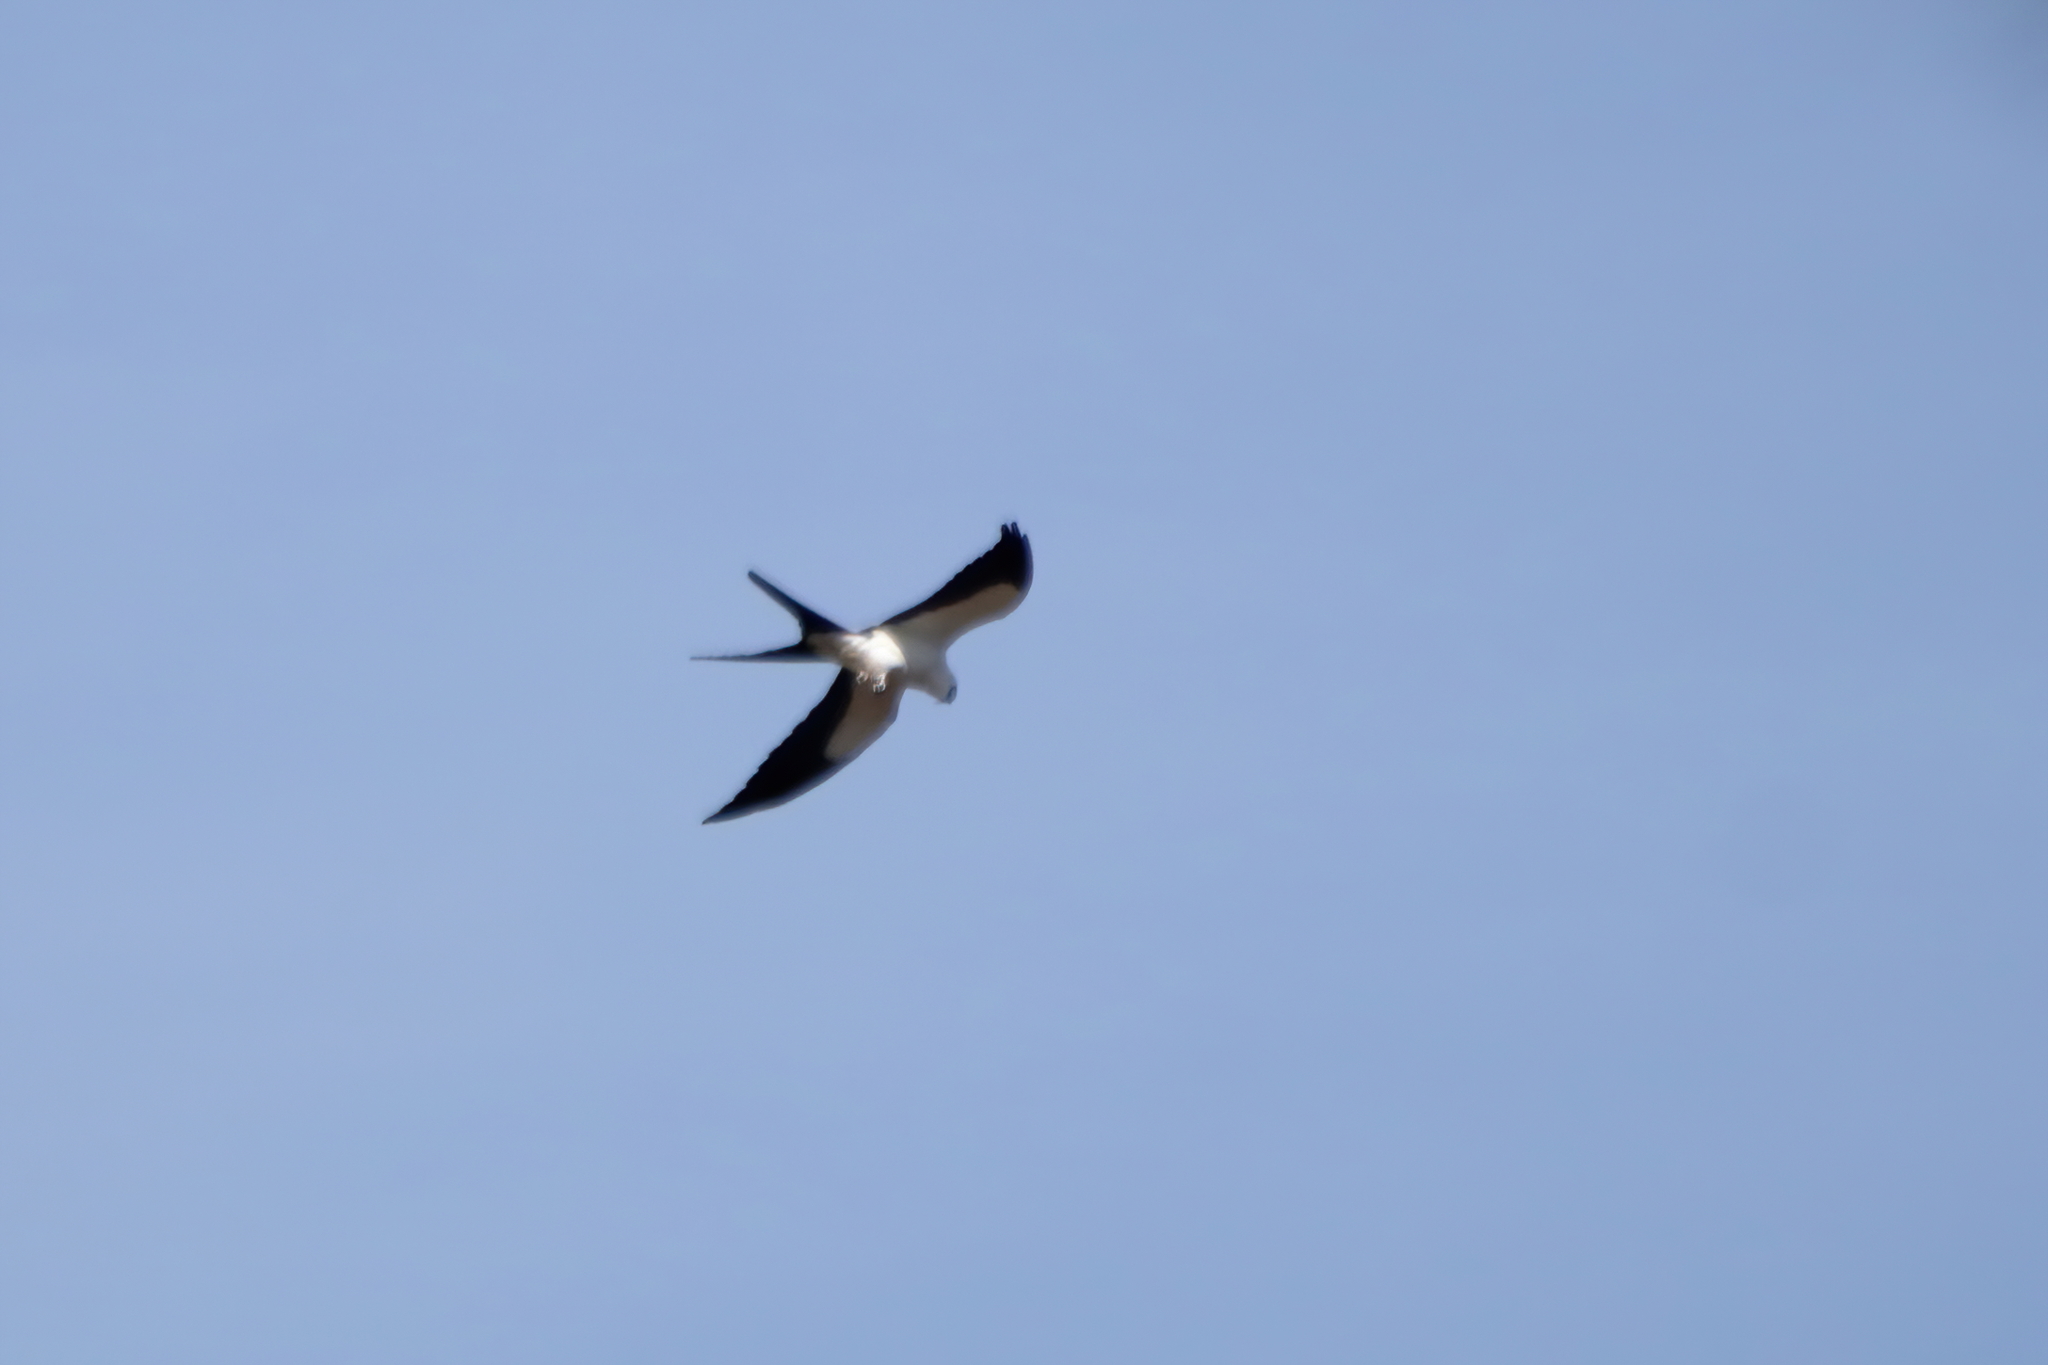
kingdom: Animalia
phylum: Chordata
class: Aves
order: Accipitriformes
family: Accipitridae
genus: Elanoides
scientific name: Elanoides forficatus
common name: Swallow-tailed kite
